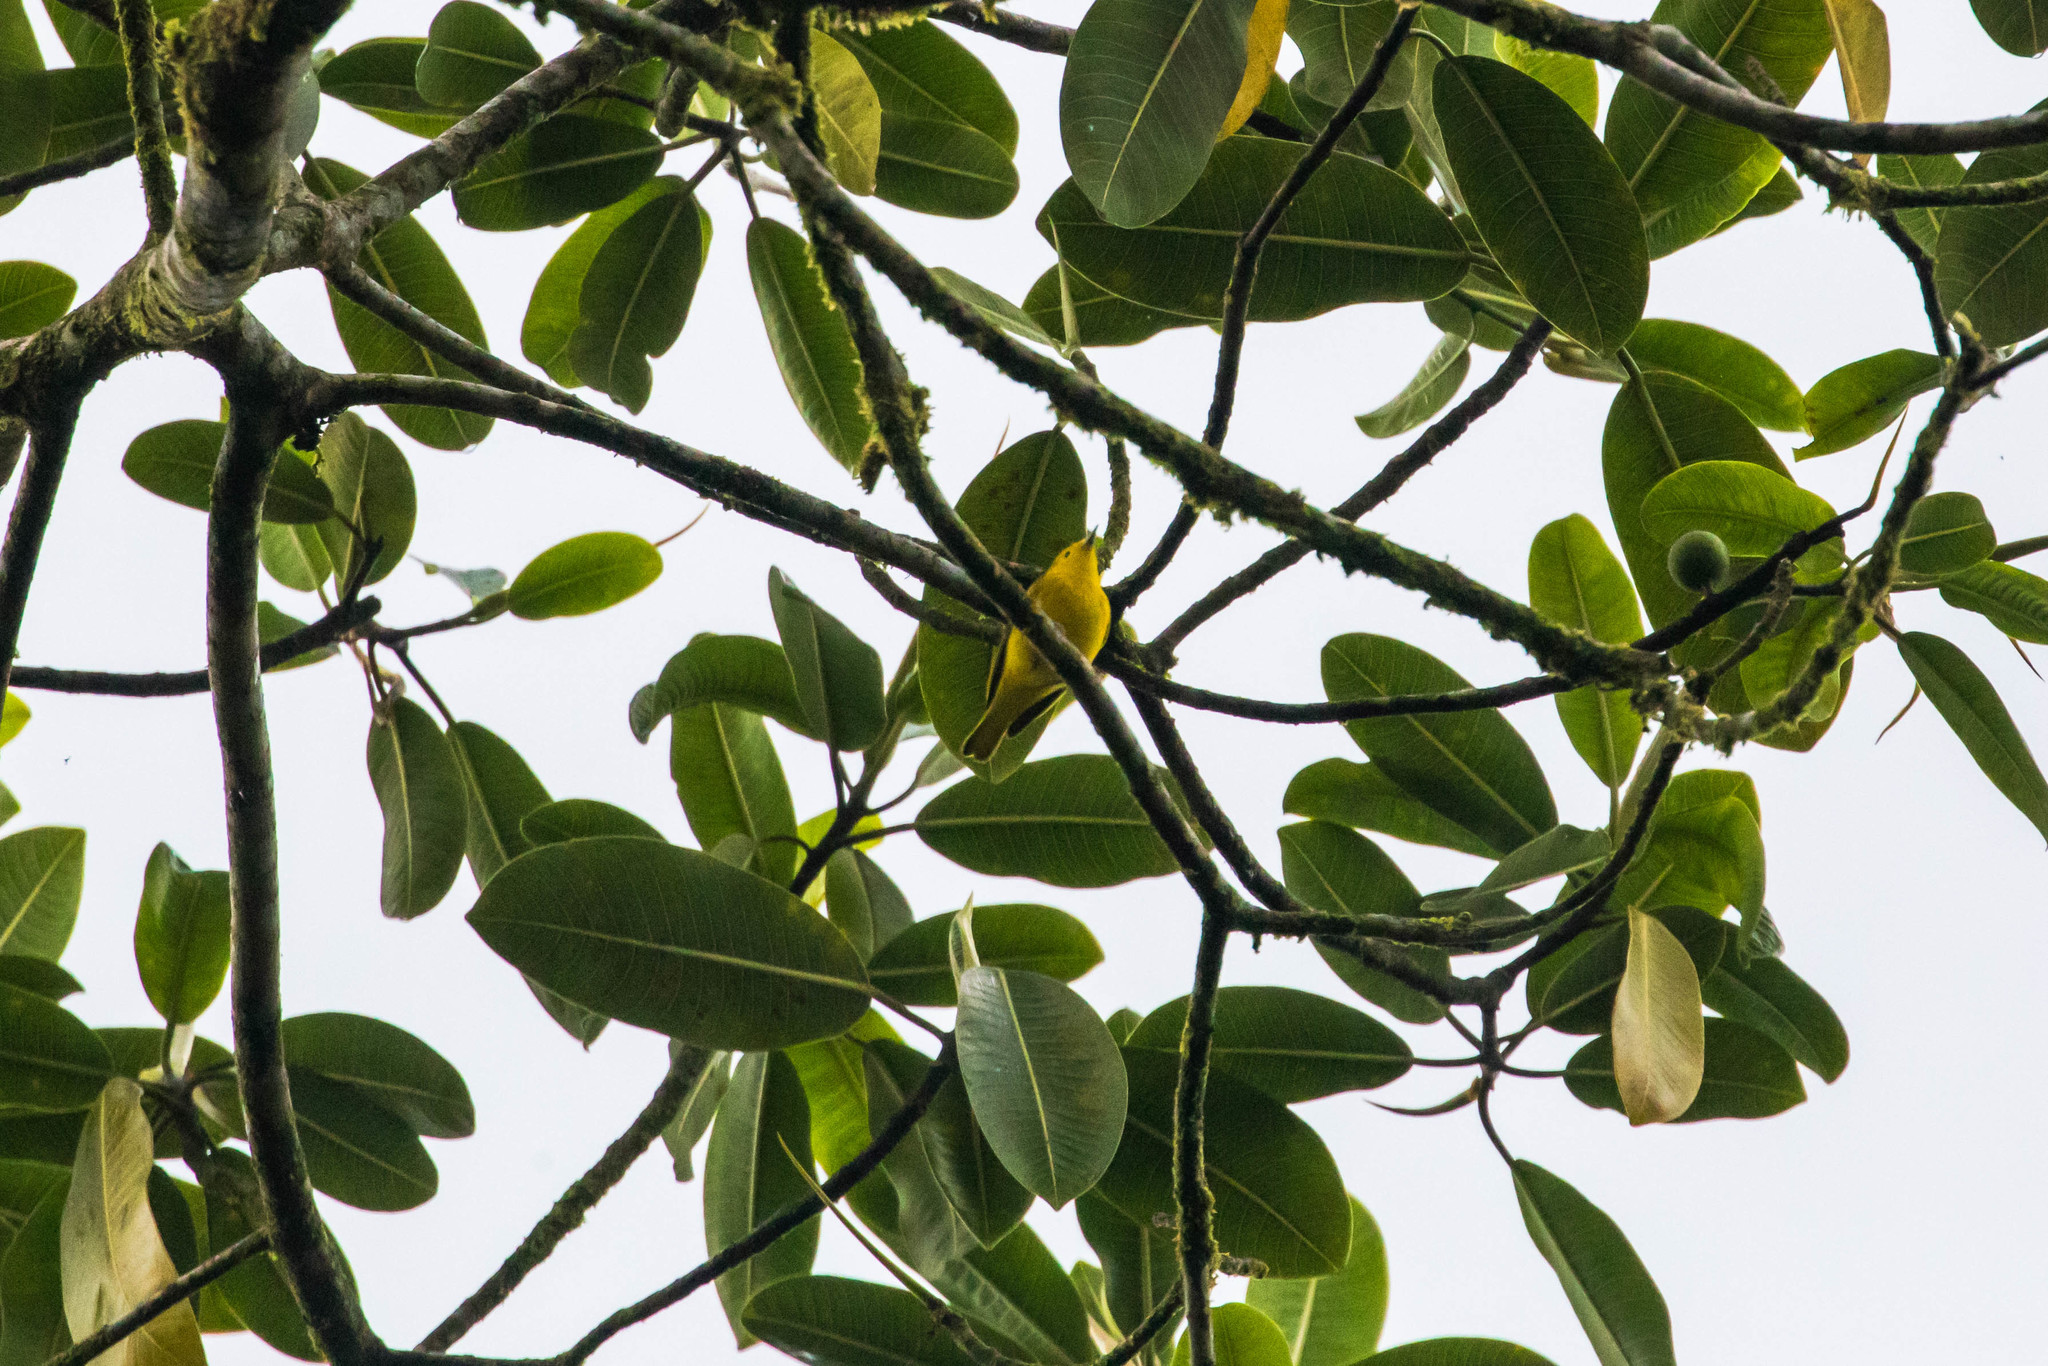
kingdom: Animalia
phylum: Chordata
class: Aves
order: Passeriformes
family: Parulidae
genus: Setophaga
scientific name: Setophaga petechia
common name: Yellow warbler
